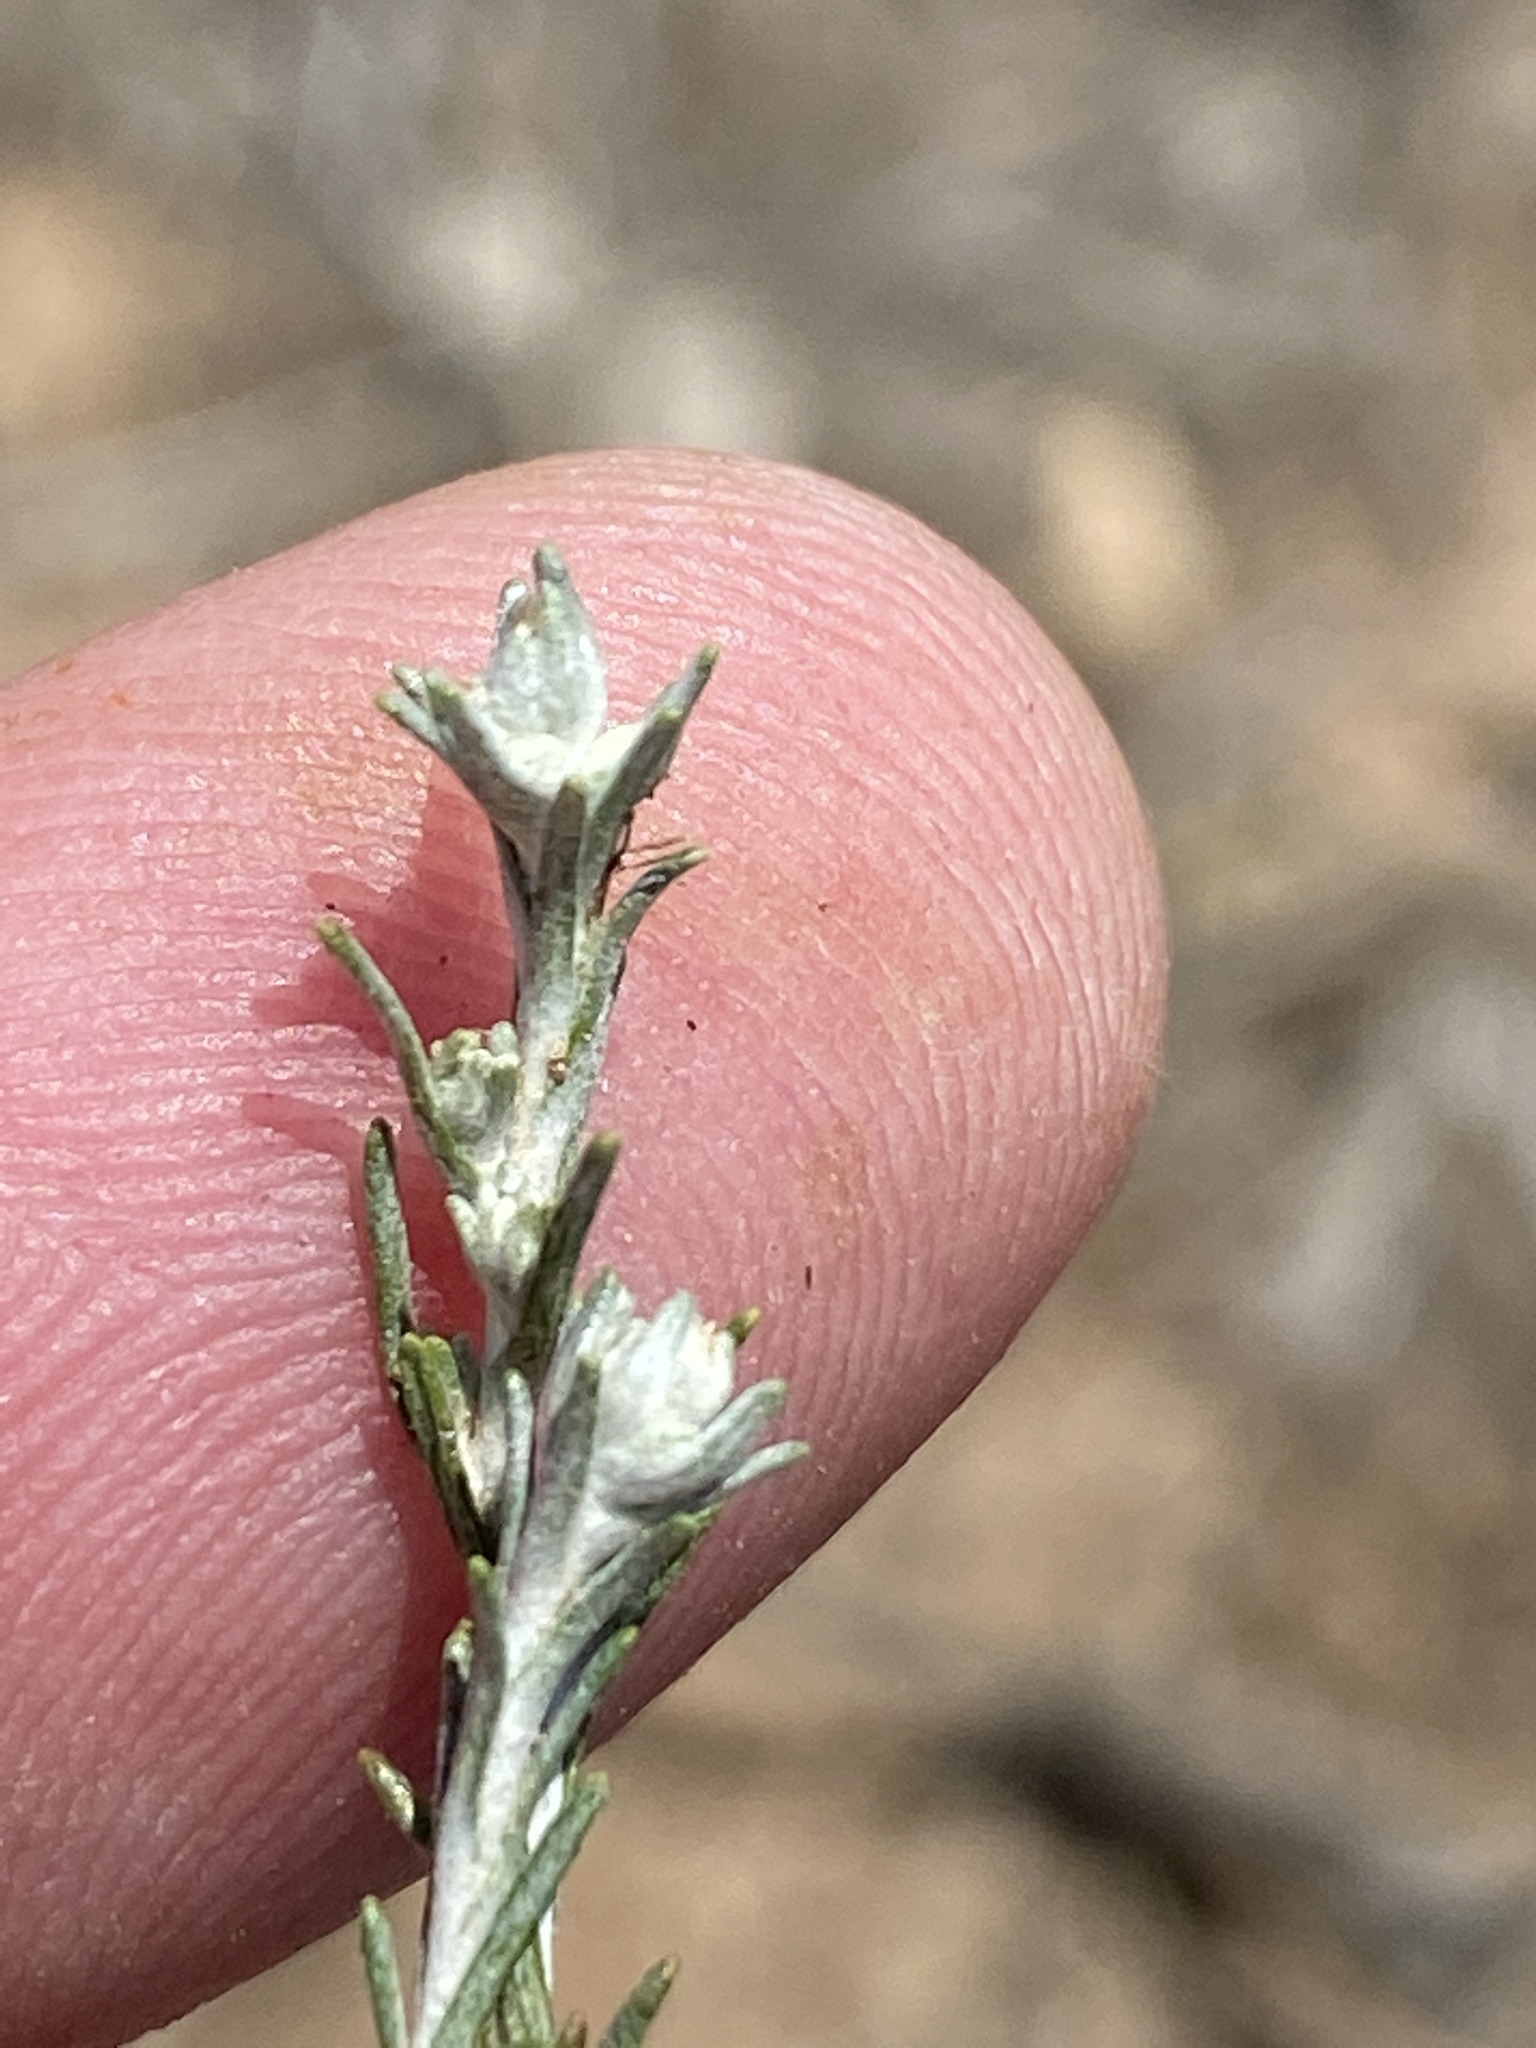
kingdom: Plantae
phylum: Tracheophyta
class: Magnoliopsida
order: Asterales
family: Asteraceae
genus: Helichrysum
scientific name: Helichrysum asperum
